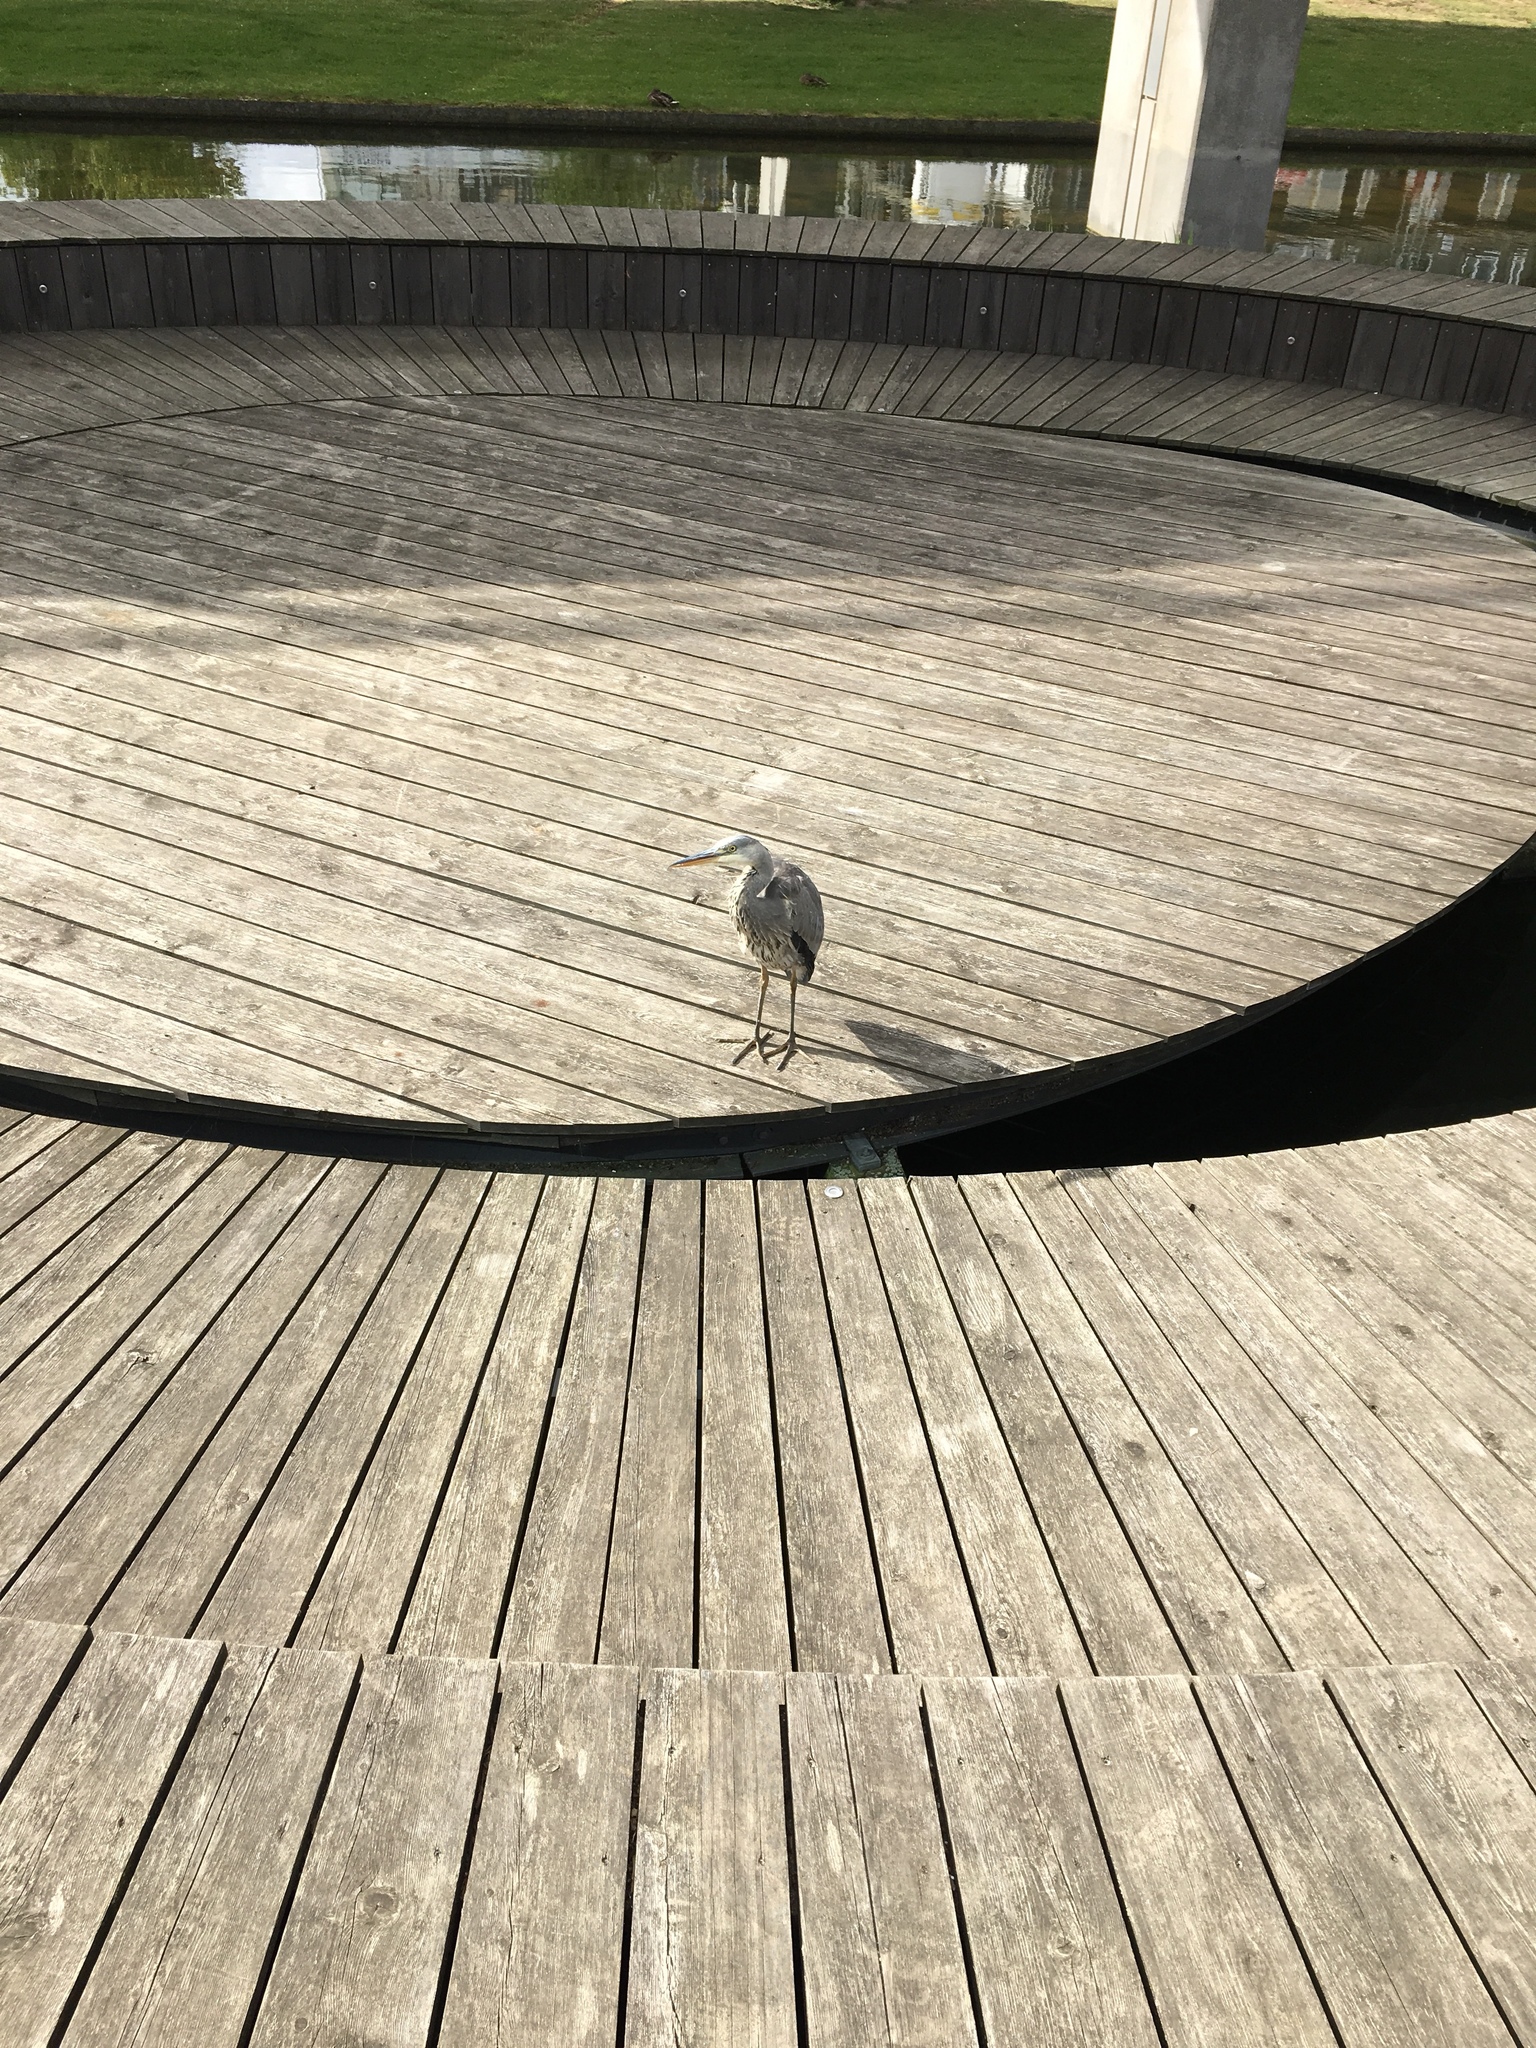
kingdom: Animalia
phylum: Chordata
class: Aves
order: Pelecaniformes
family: Ardeidae
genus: Ardea
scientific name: Ardea cinerea
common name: Grey heron
